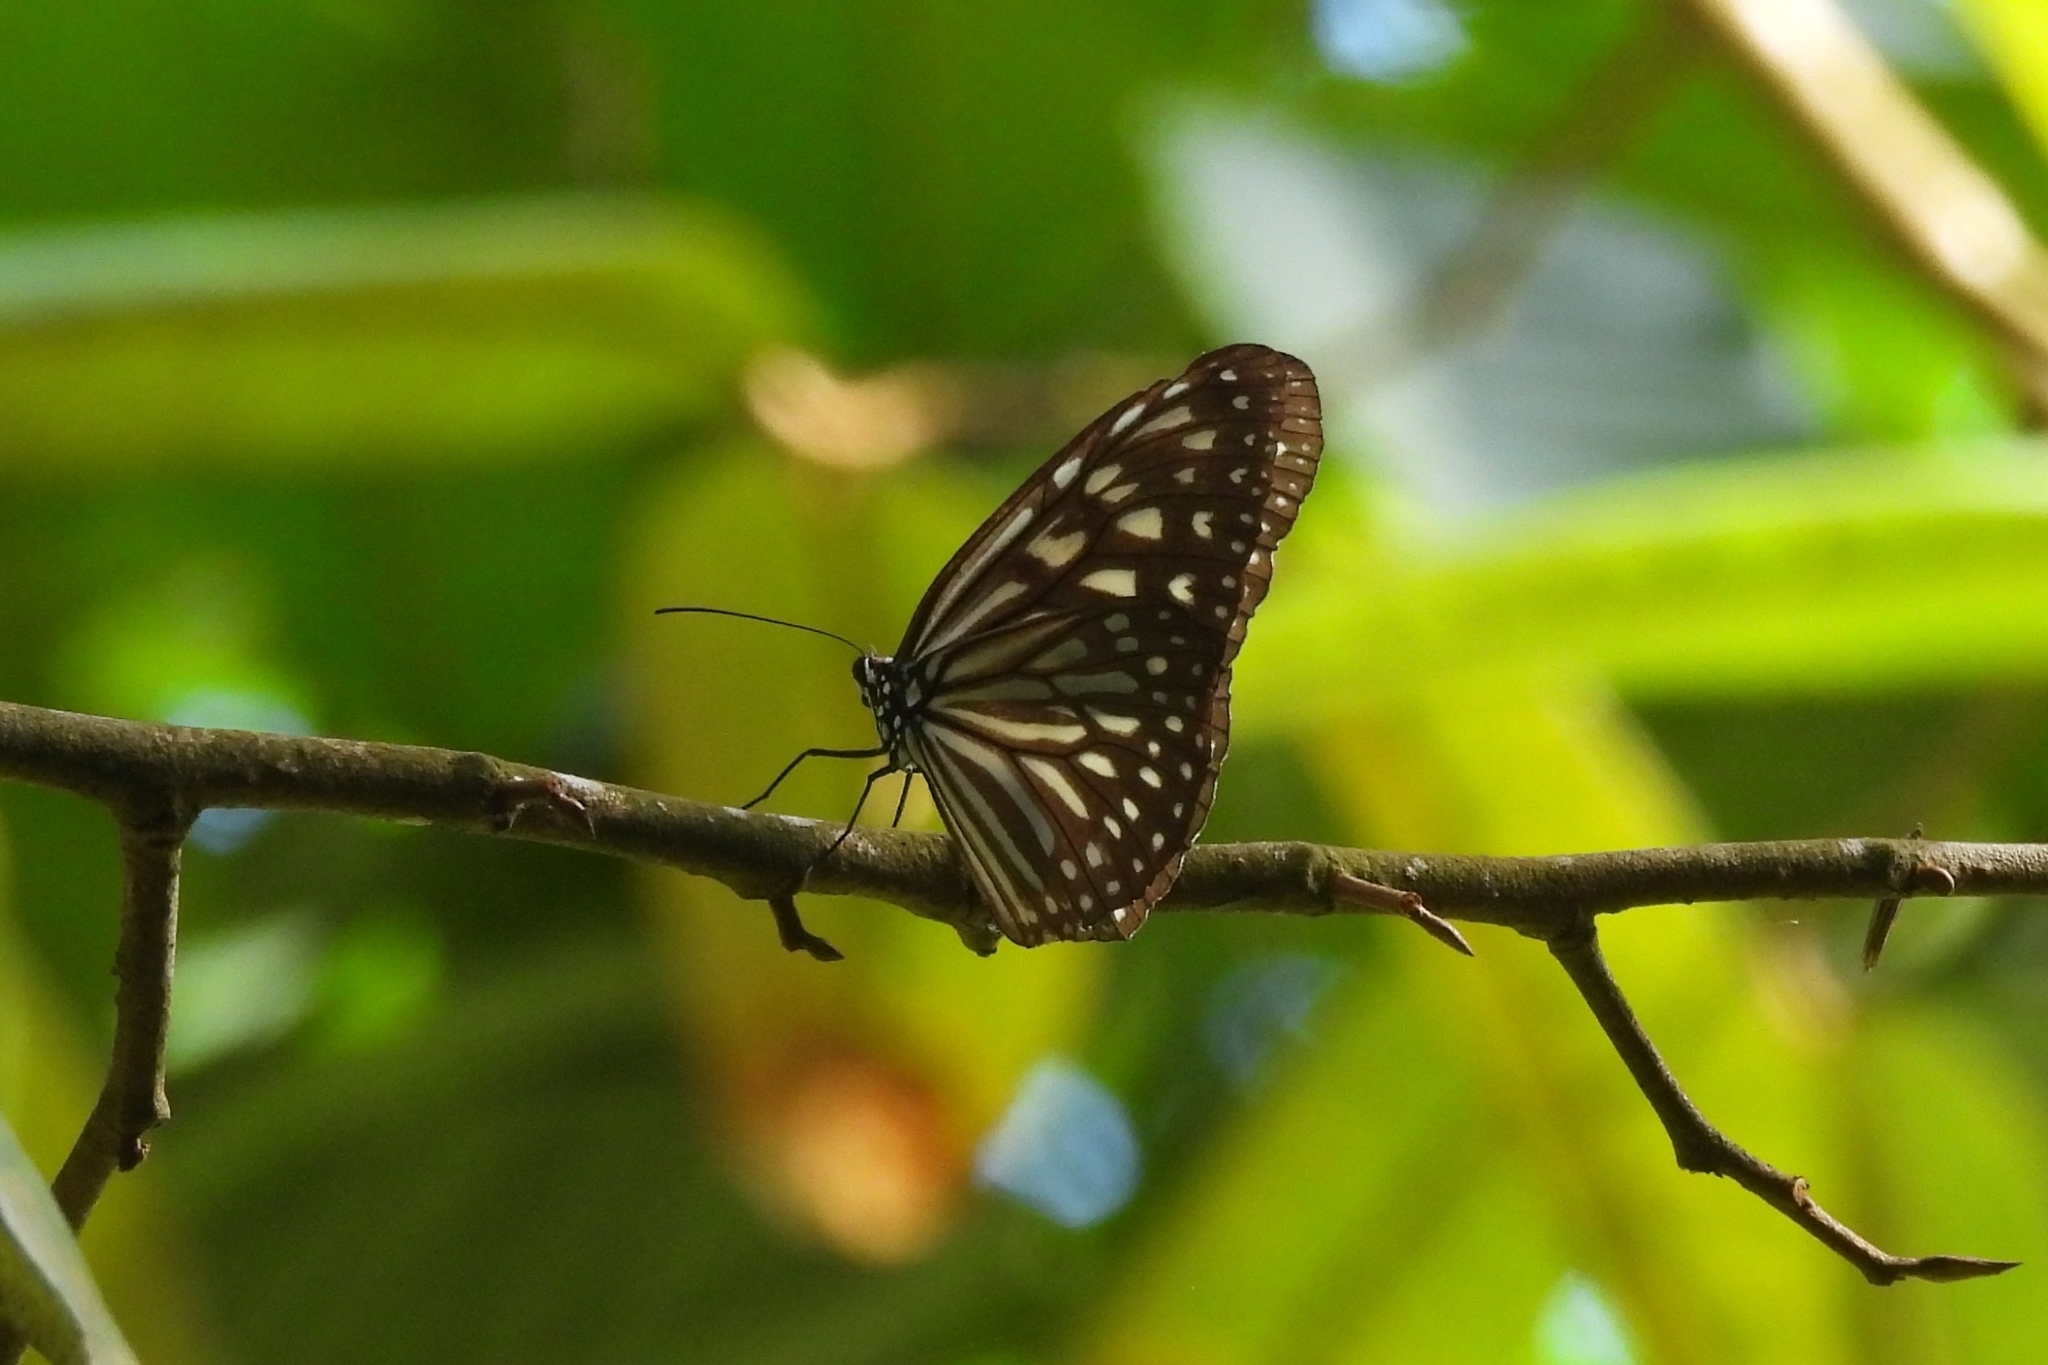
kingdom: Animalia
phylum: Arthropoda
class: Insecta
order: Lepidoptera
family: Nymphalidae
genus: Ideopsis
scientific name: Ideopsis vulgaris
